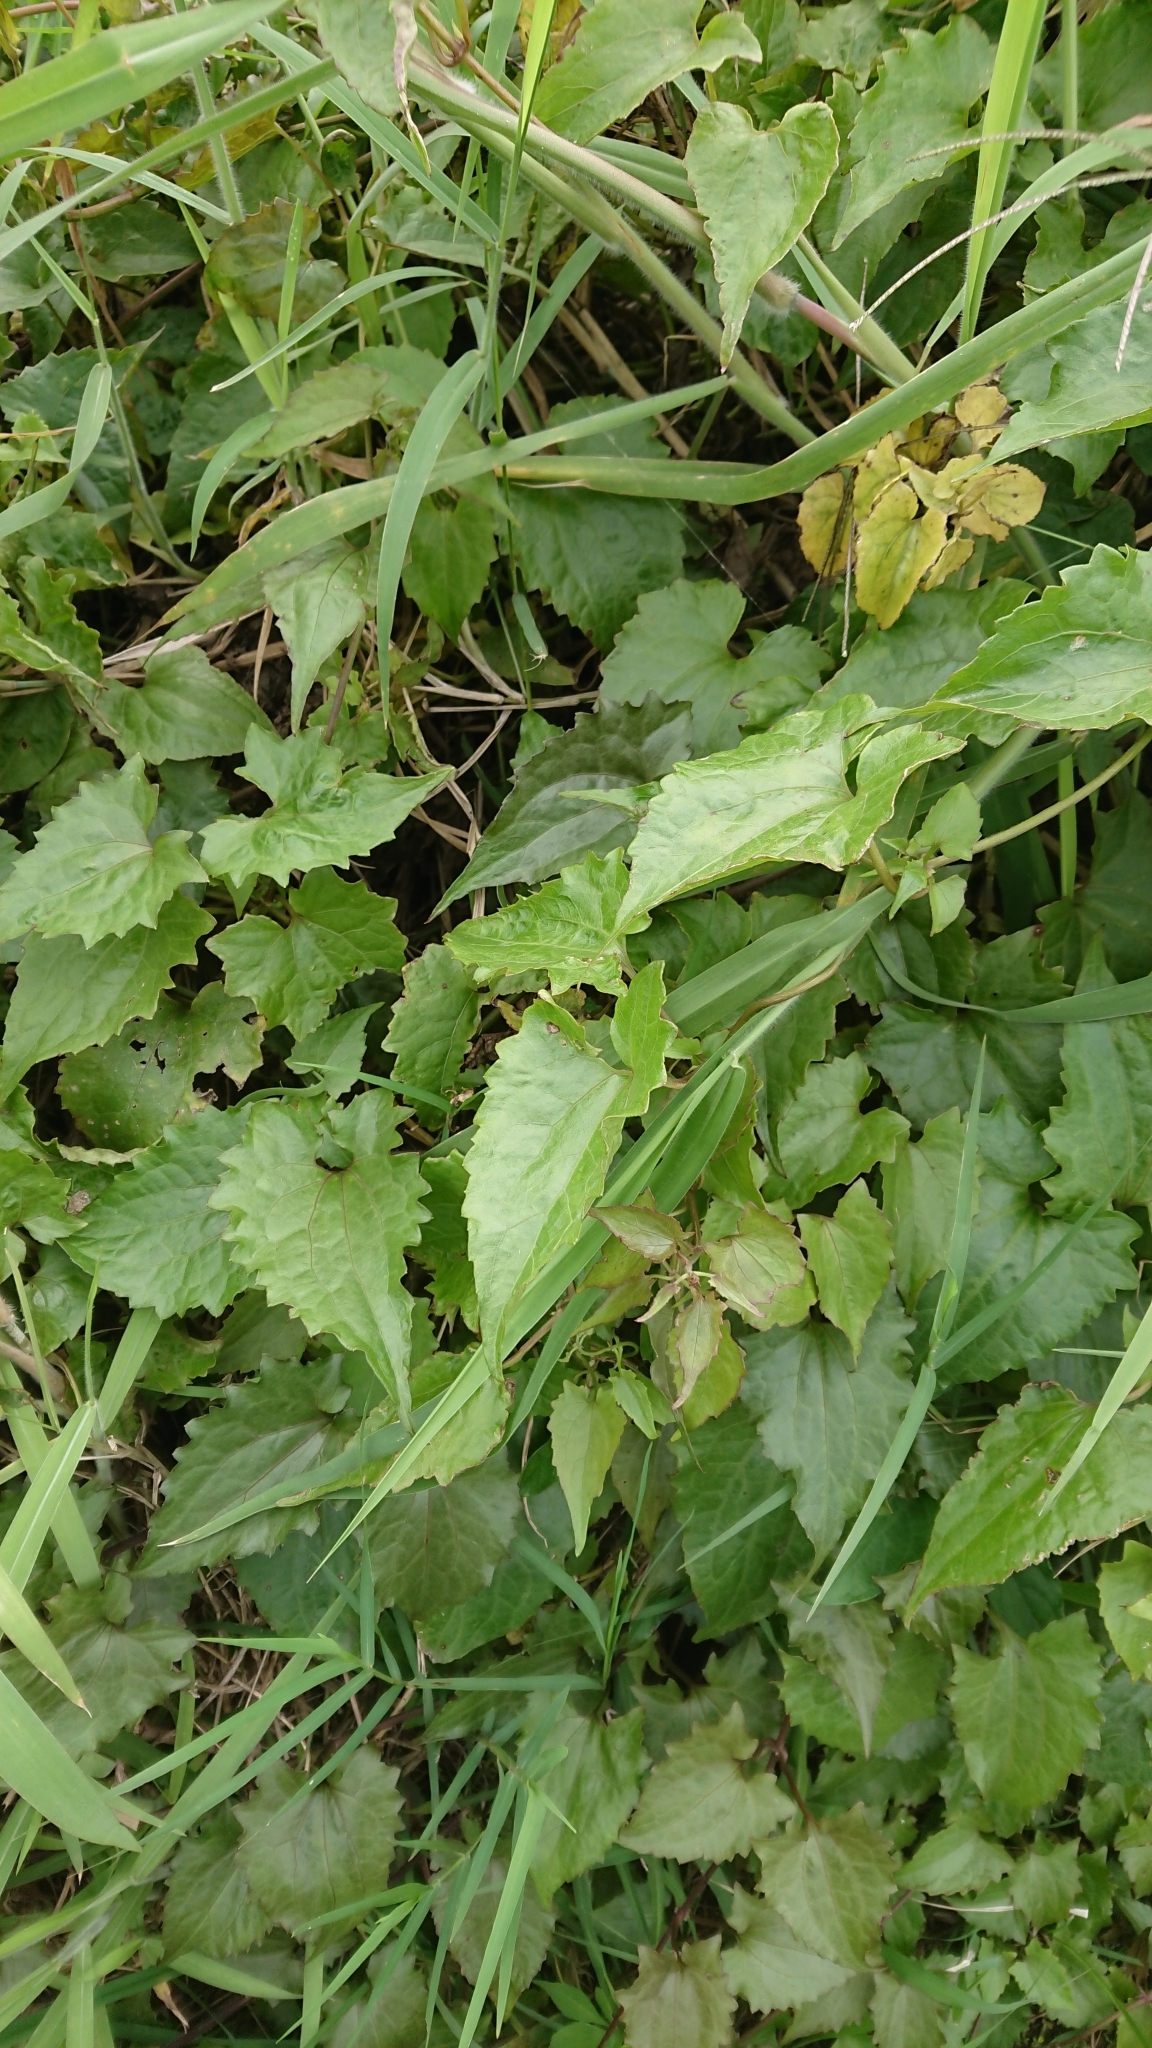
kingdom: Plantae
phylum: Tracheophyta
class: Magnoliopsida
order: Asterales
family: Asteraceae
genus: Mikania
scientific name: Mikania micrantha
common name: Mile-a-minute
